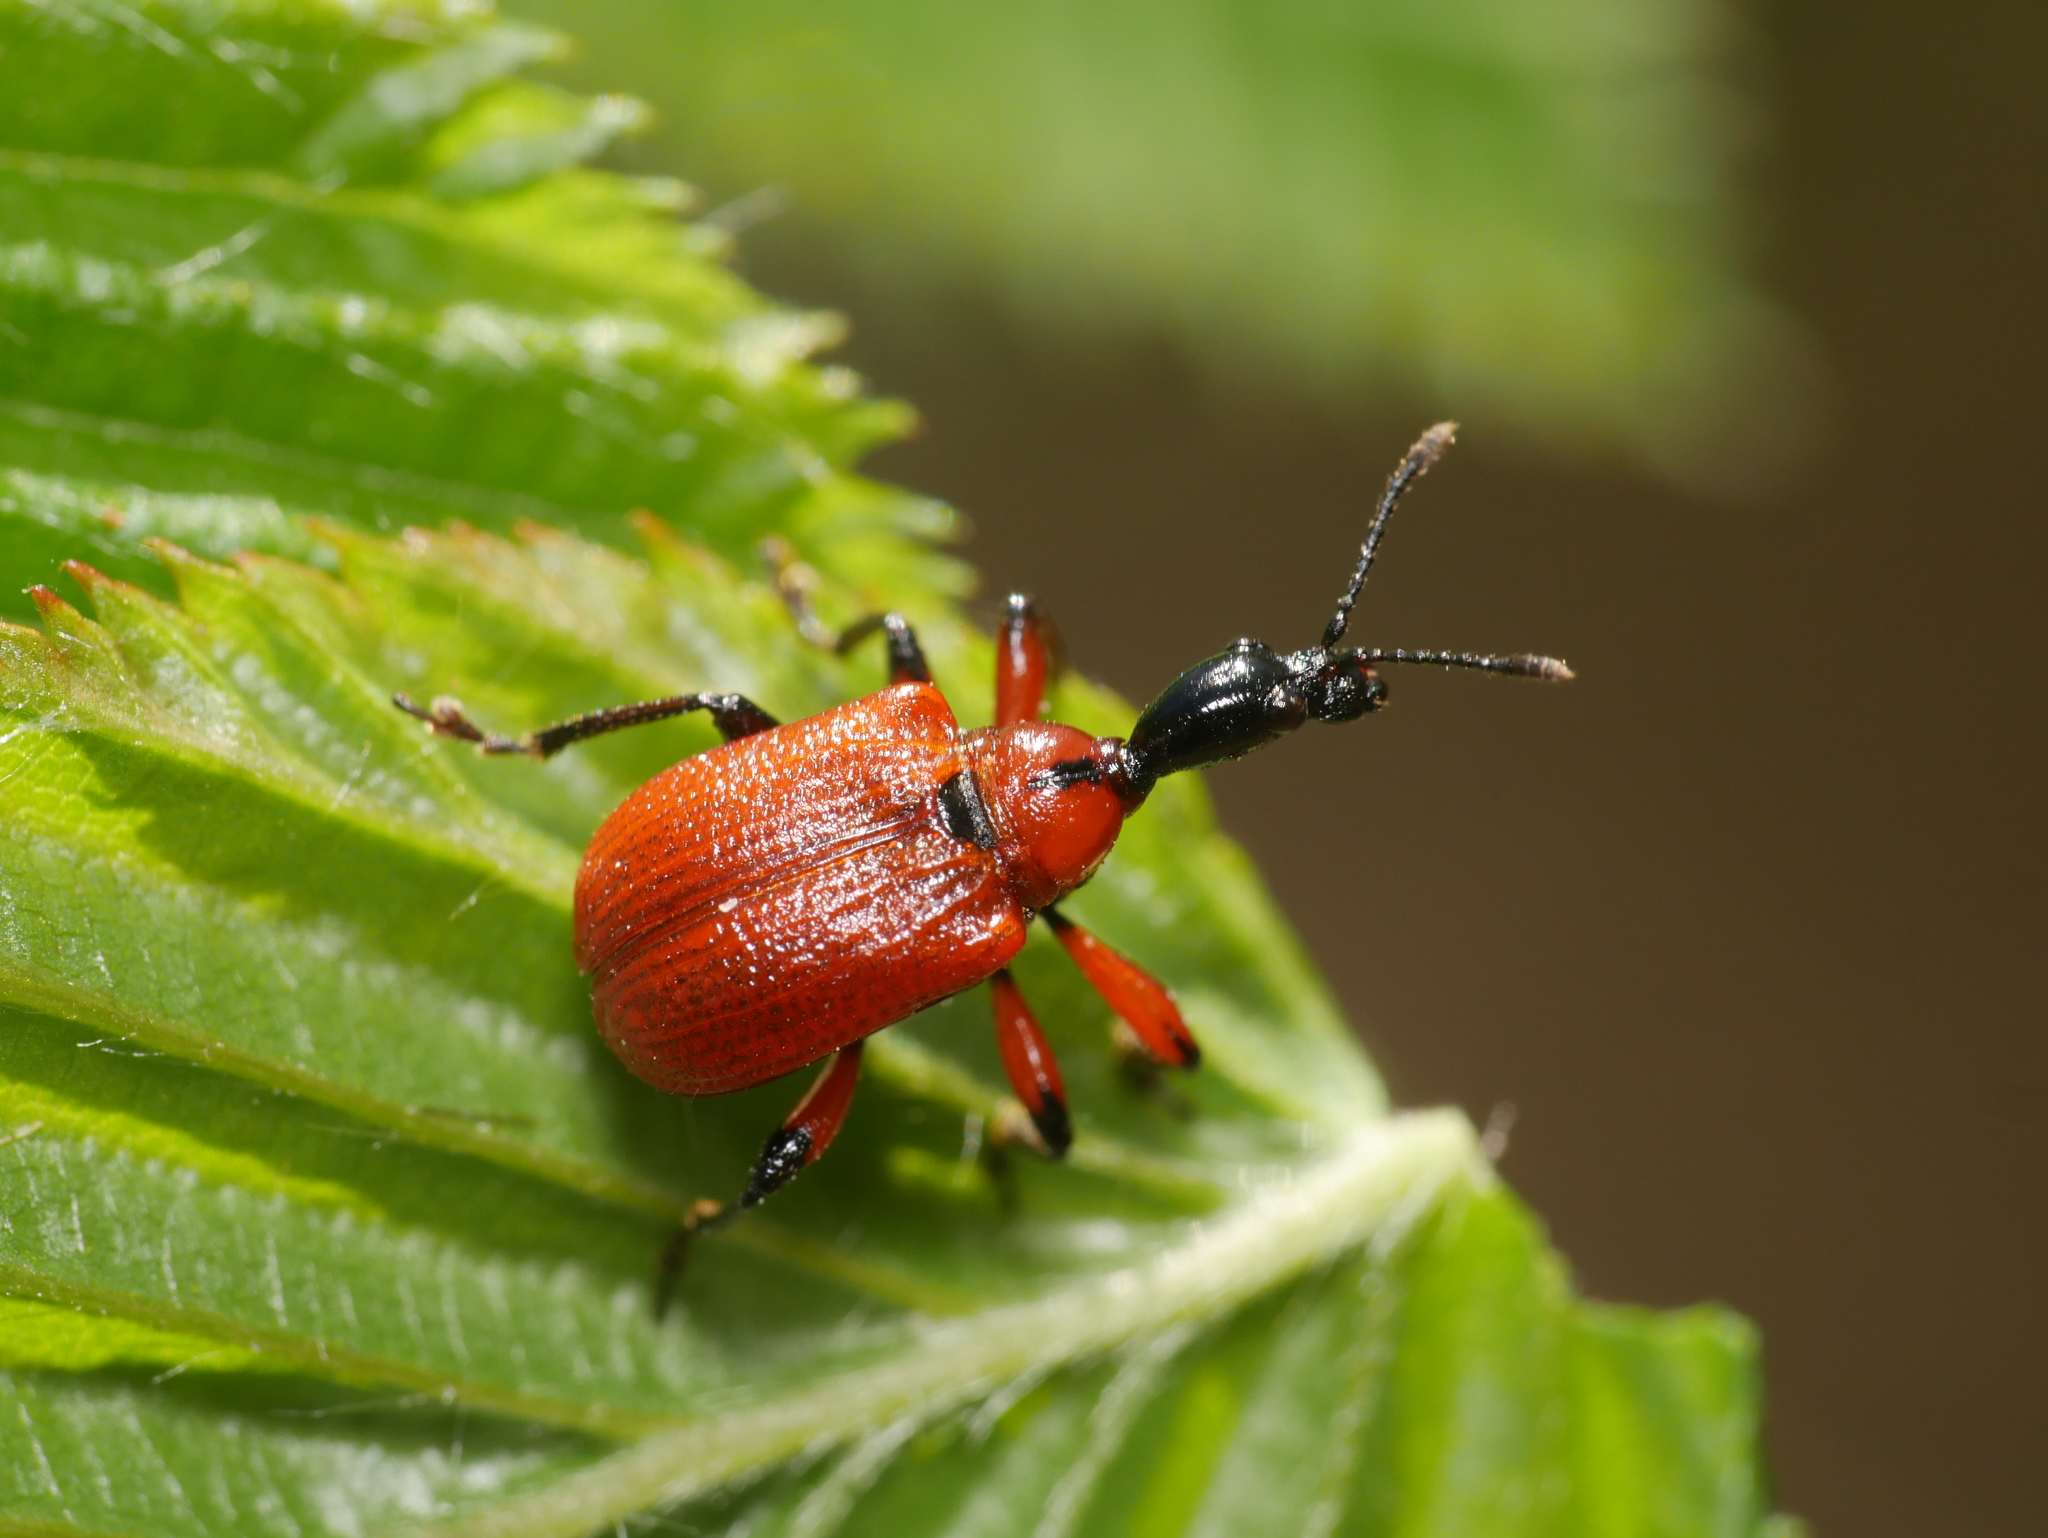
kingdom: Animalia
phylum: Arthropoda
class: Insecta
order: Coleoptera
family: Attelabidae
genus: Apoderus
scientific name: Apoderus coryli
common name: Hazel leaf roller
